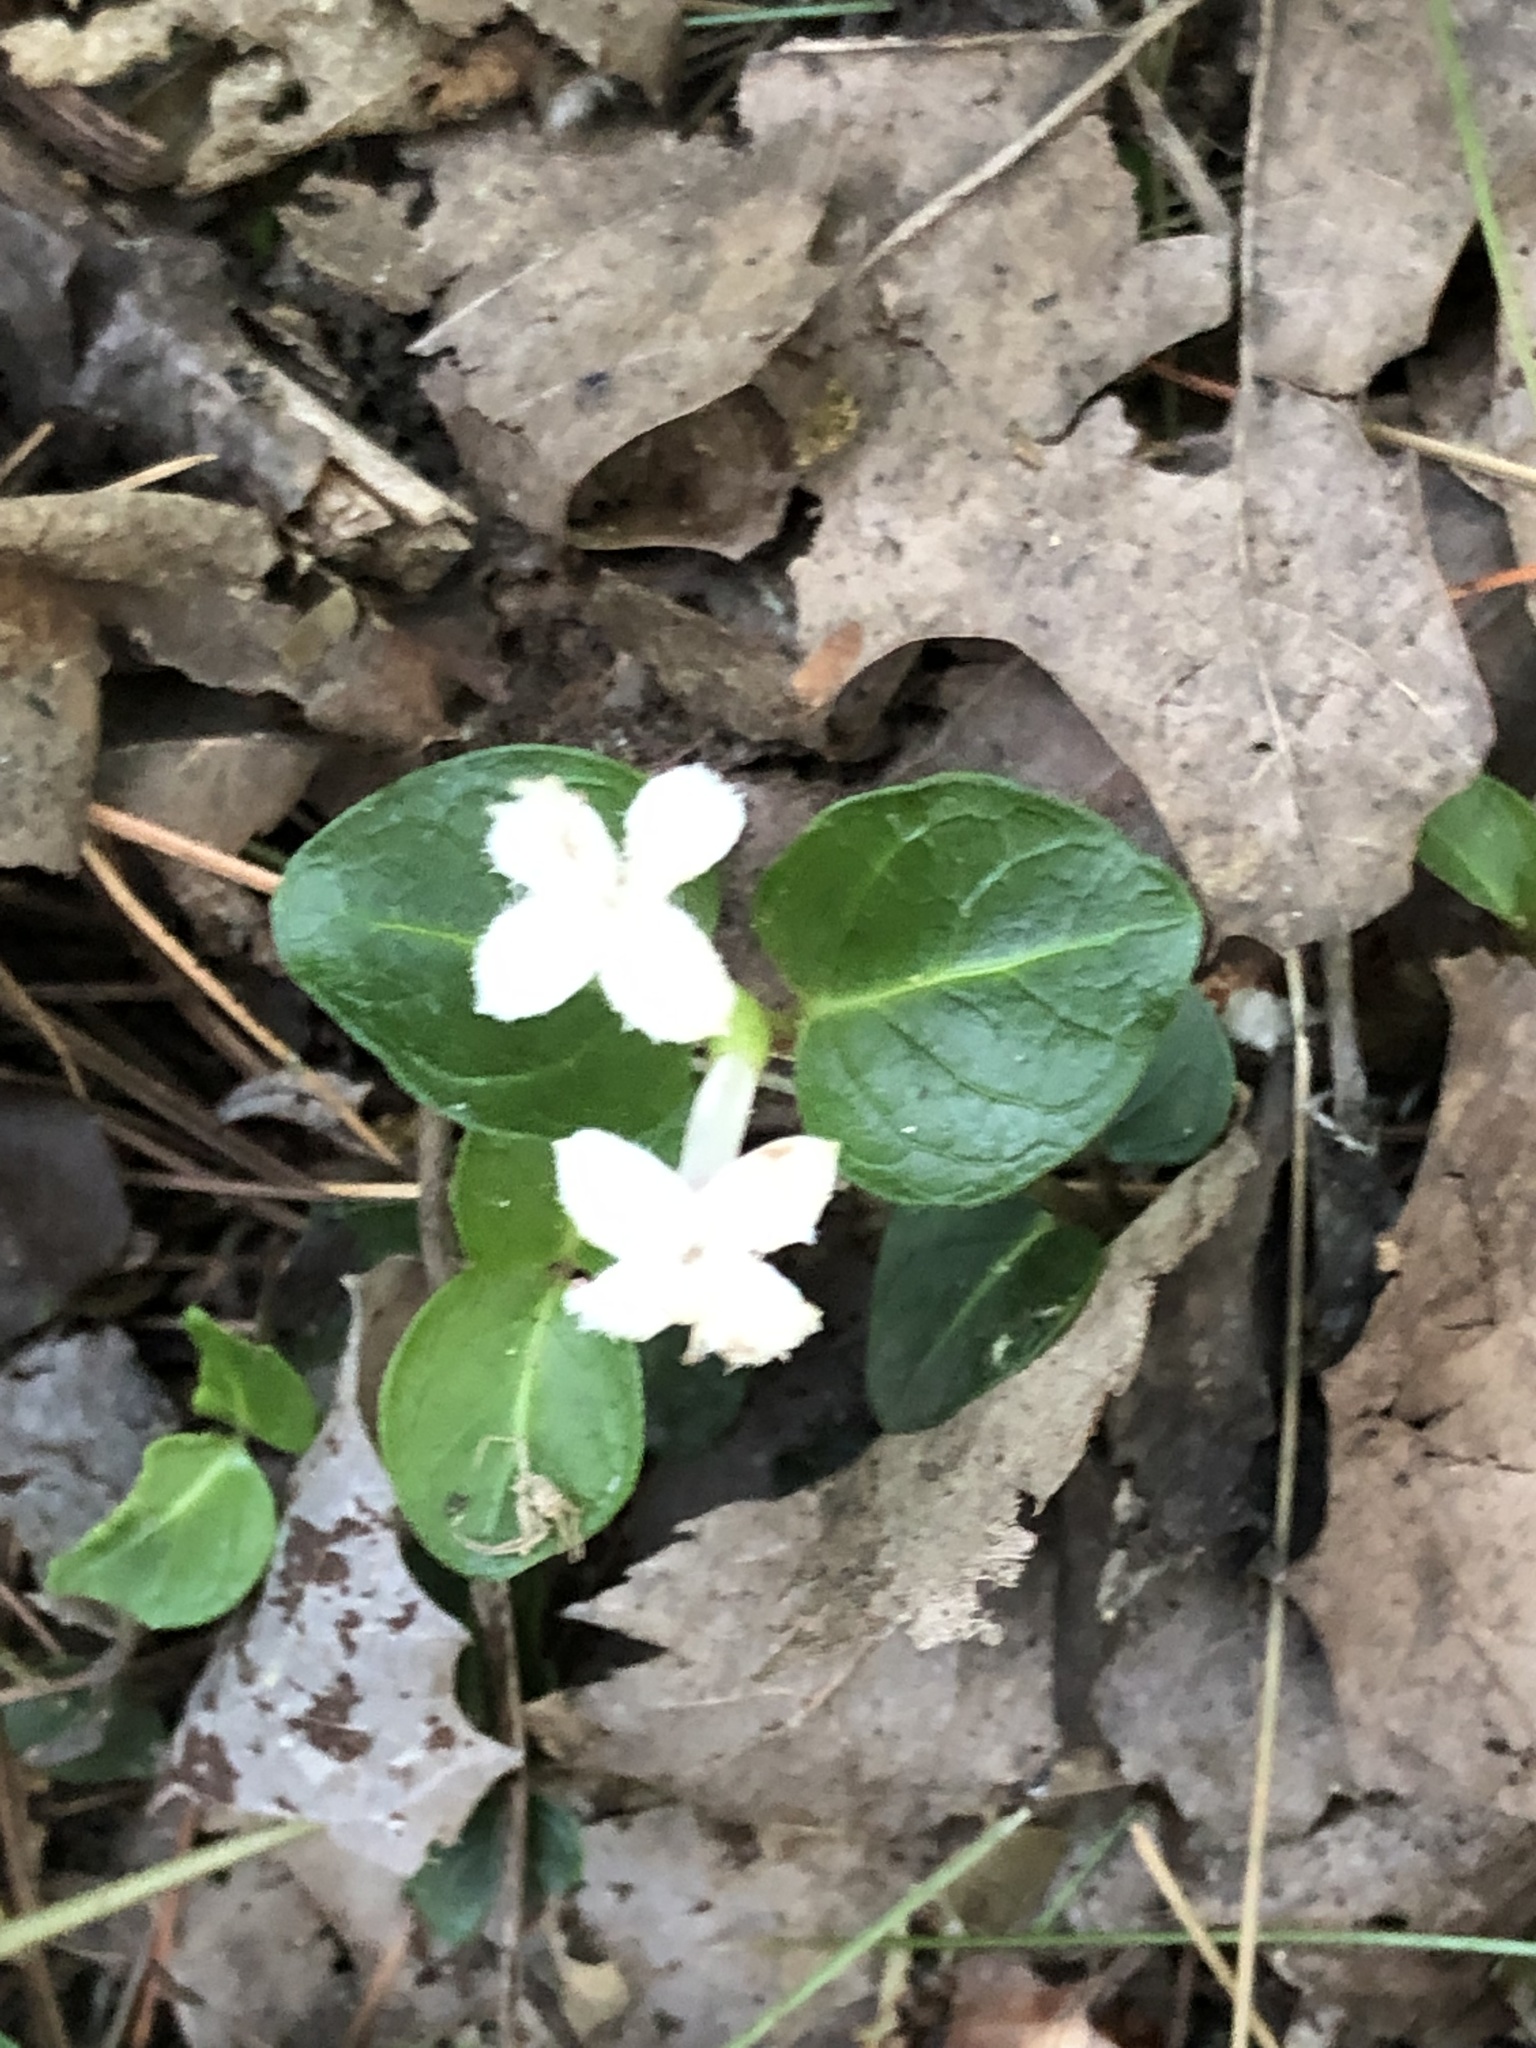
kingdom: Plantae
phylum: Tracheophyta
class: Magnoliopsida
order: Gentianales
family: Rubiaceae
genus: Mitchella
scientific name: Mitchella repens
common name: Partridge-berry
